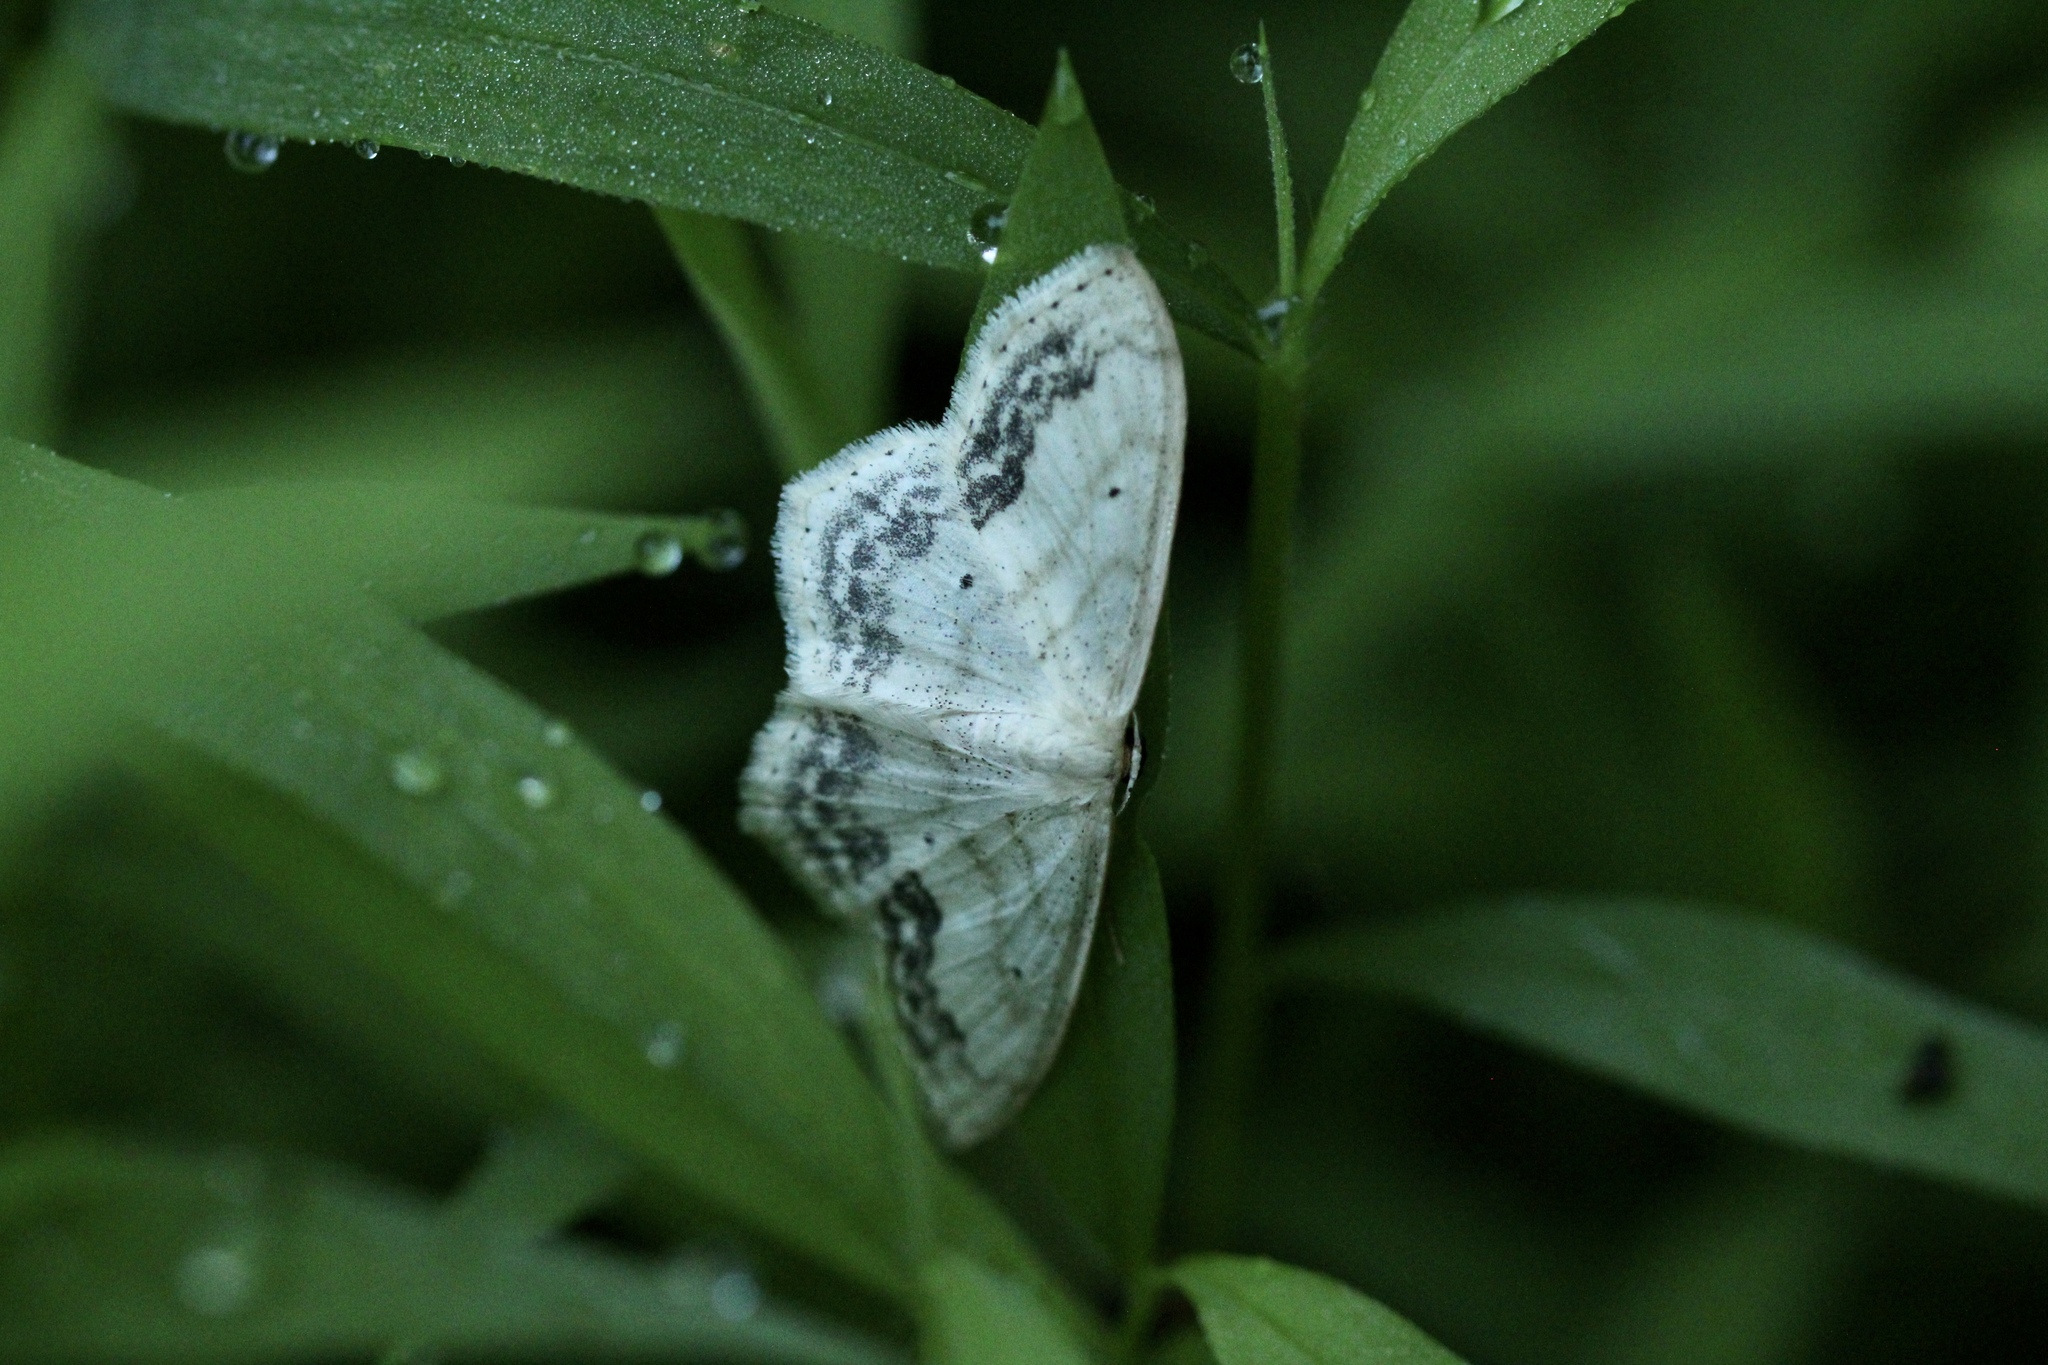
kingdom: Animalia
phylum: Arthropoda
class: Insecta
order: Lepidoptera
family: Geometridae
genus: Scopula
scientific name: Scopula limboundata
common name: Large lace border
